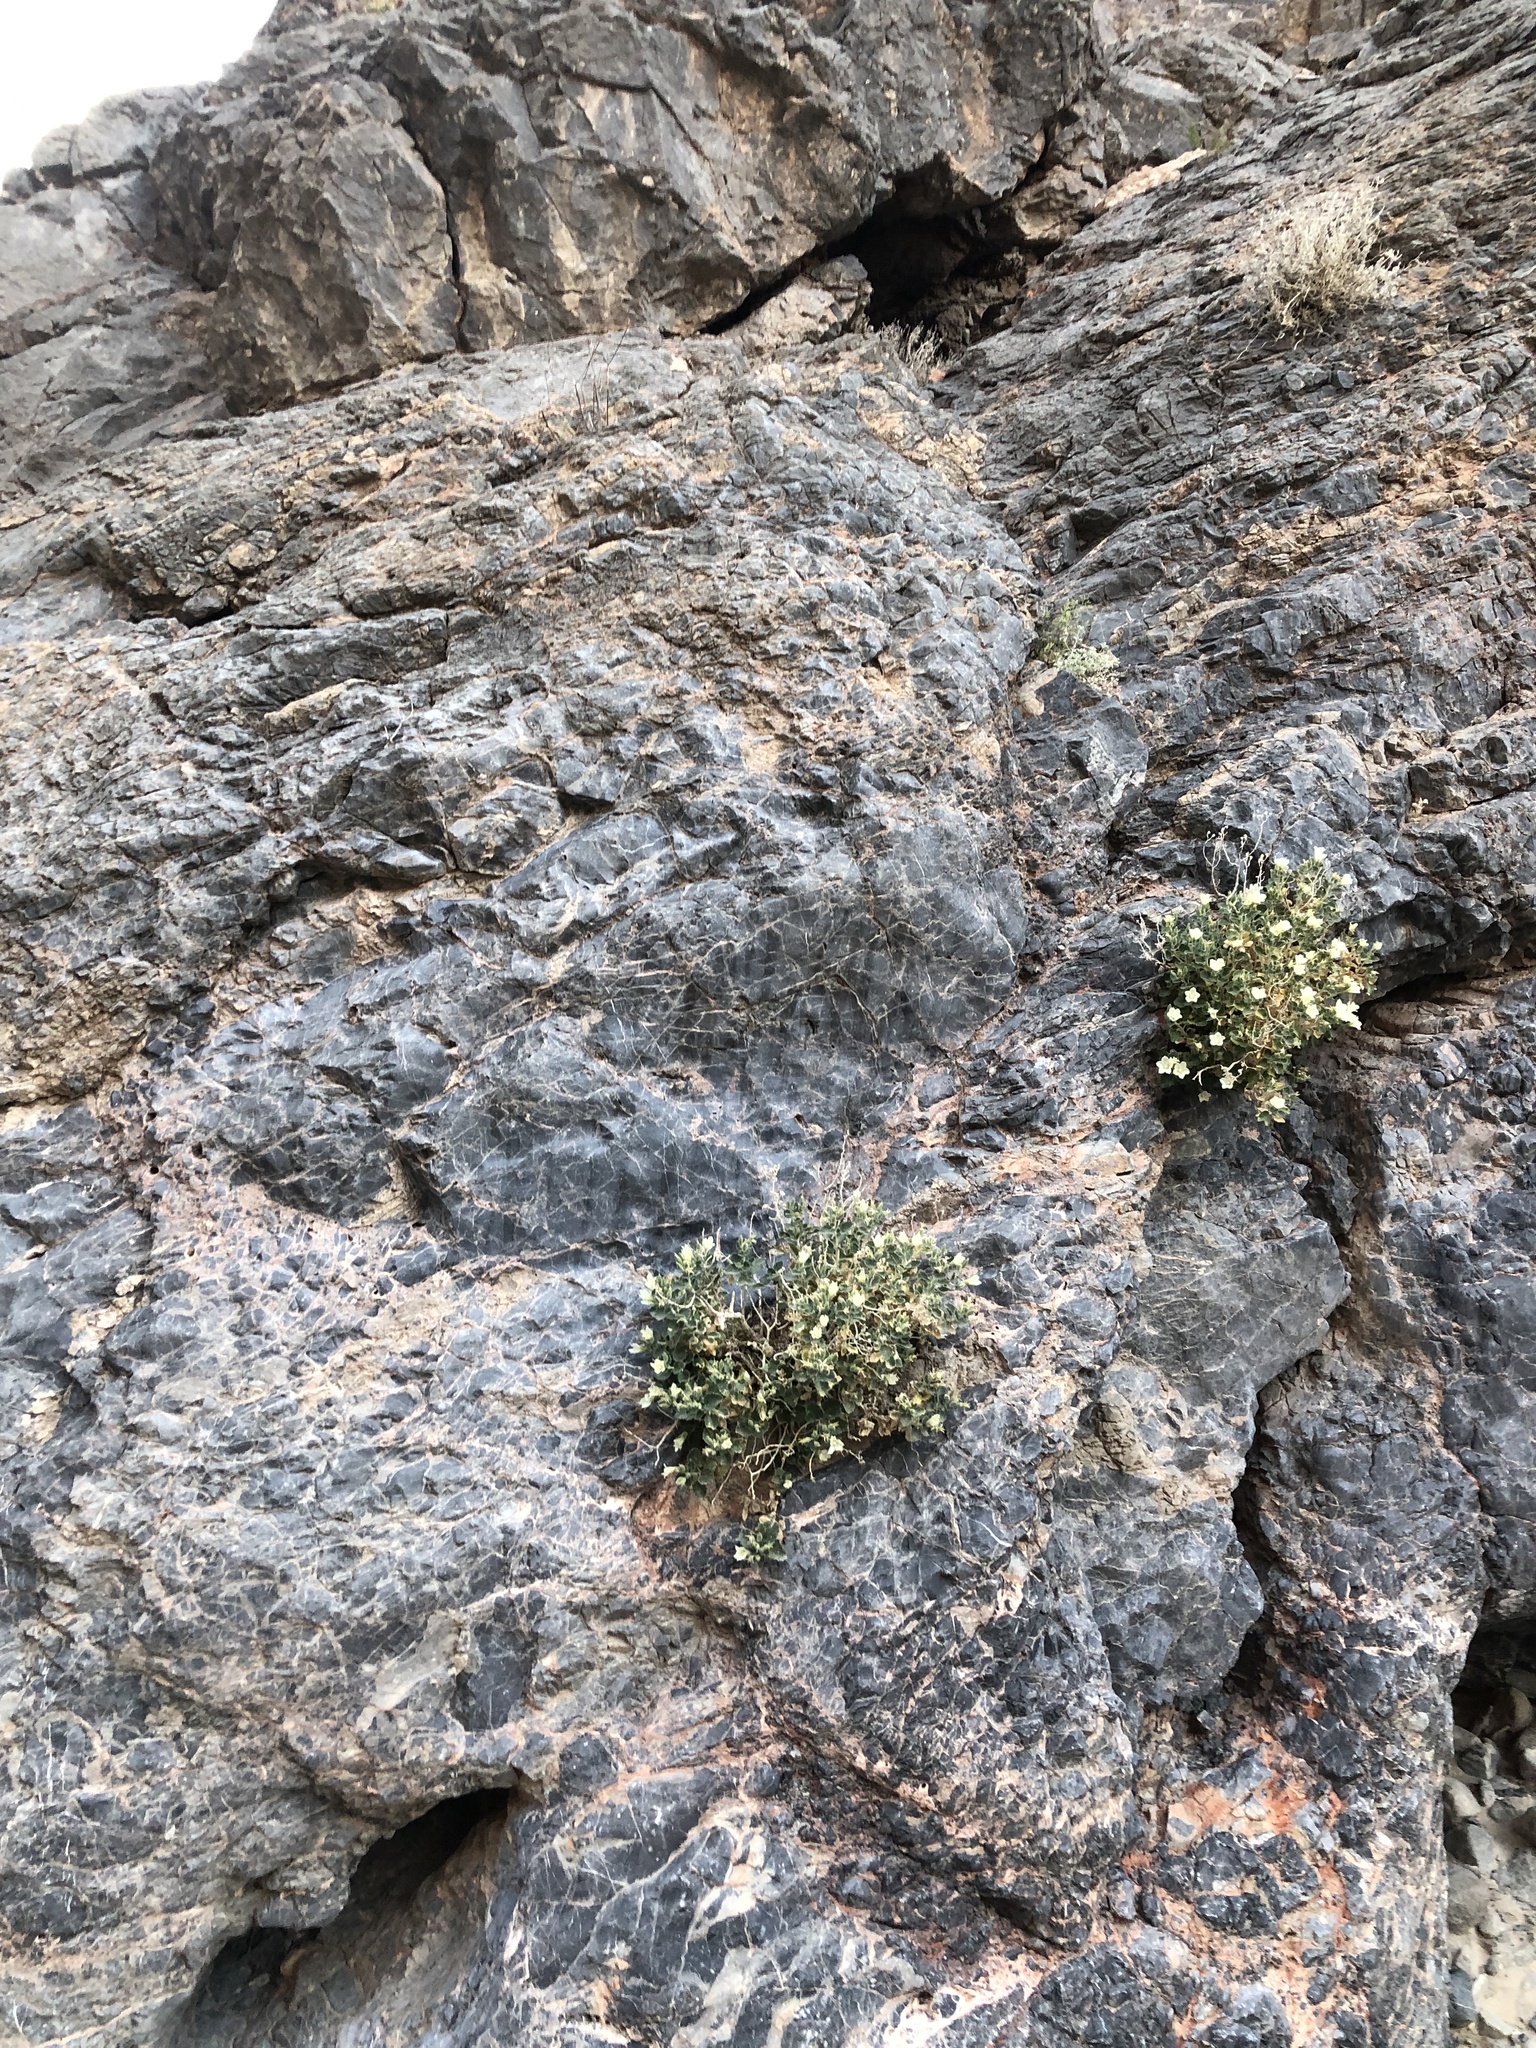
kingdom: Plantae
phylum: Tracheophyta
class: Magnoliopsida
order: Cornales
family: Loasaceae
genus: Eucnide
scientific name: Eucnide urens
